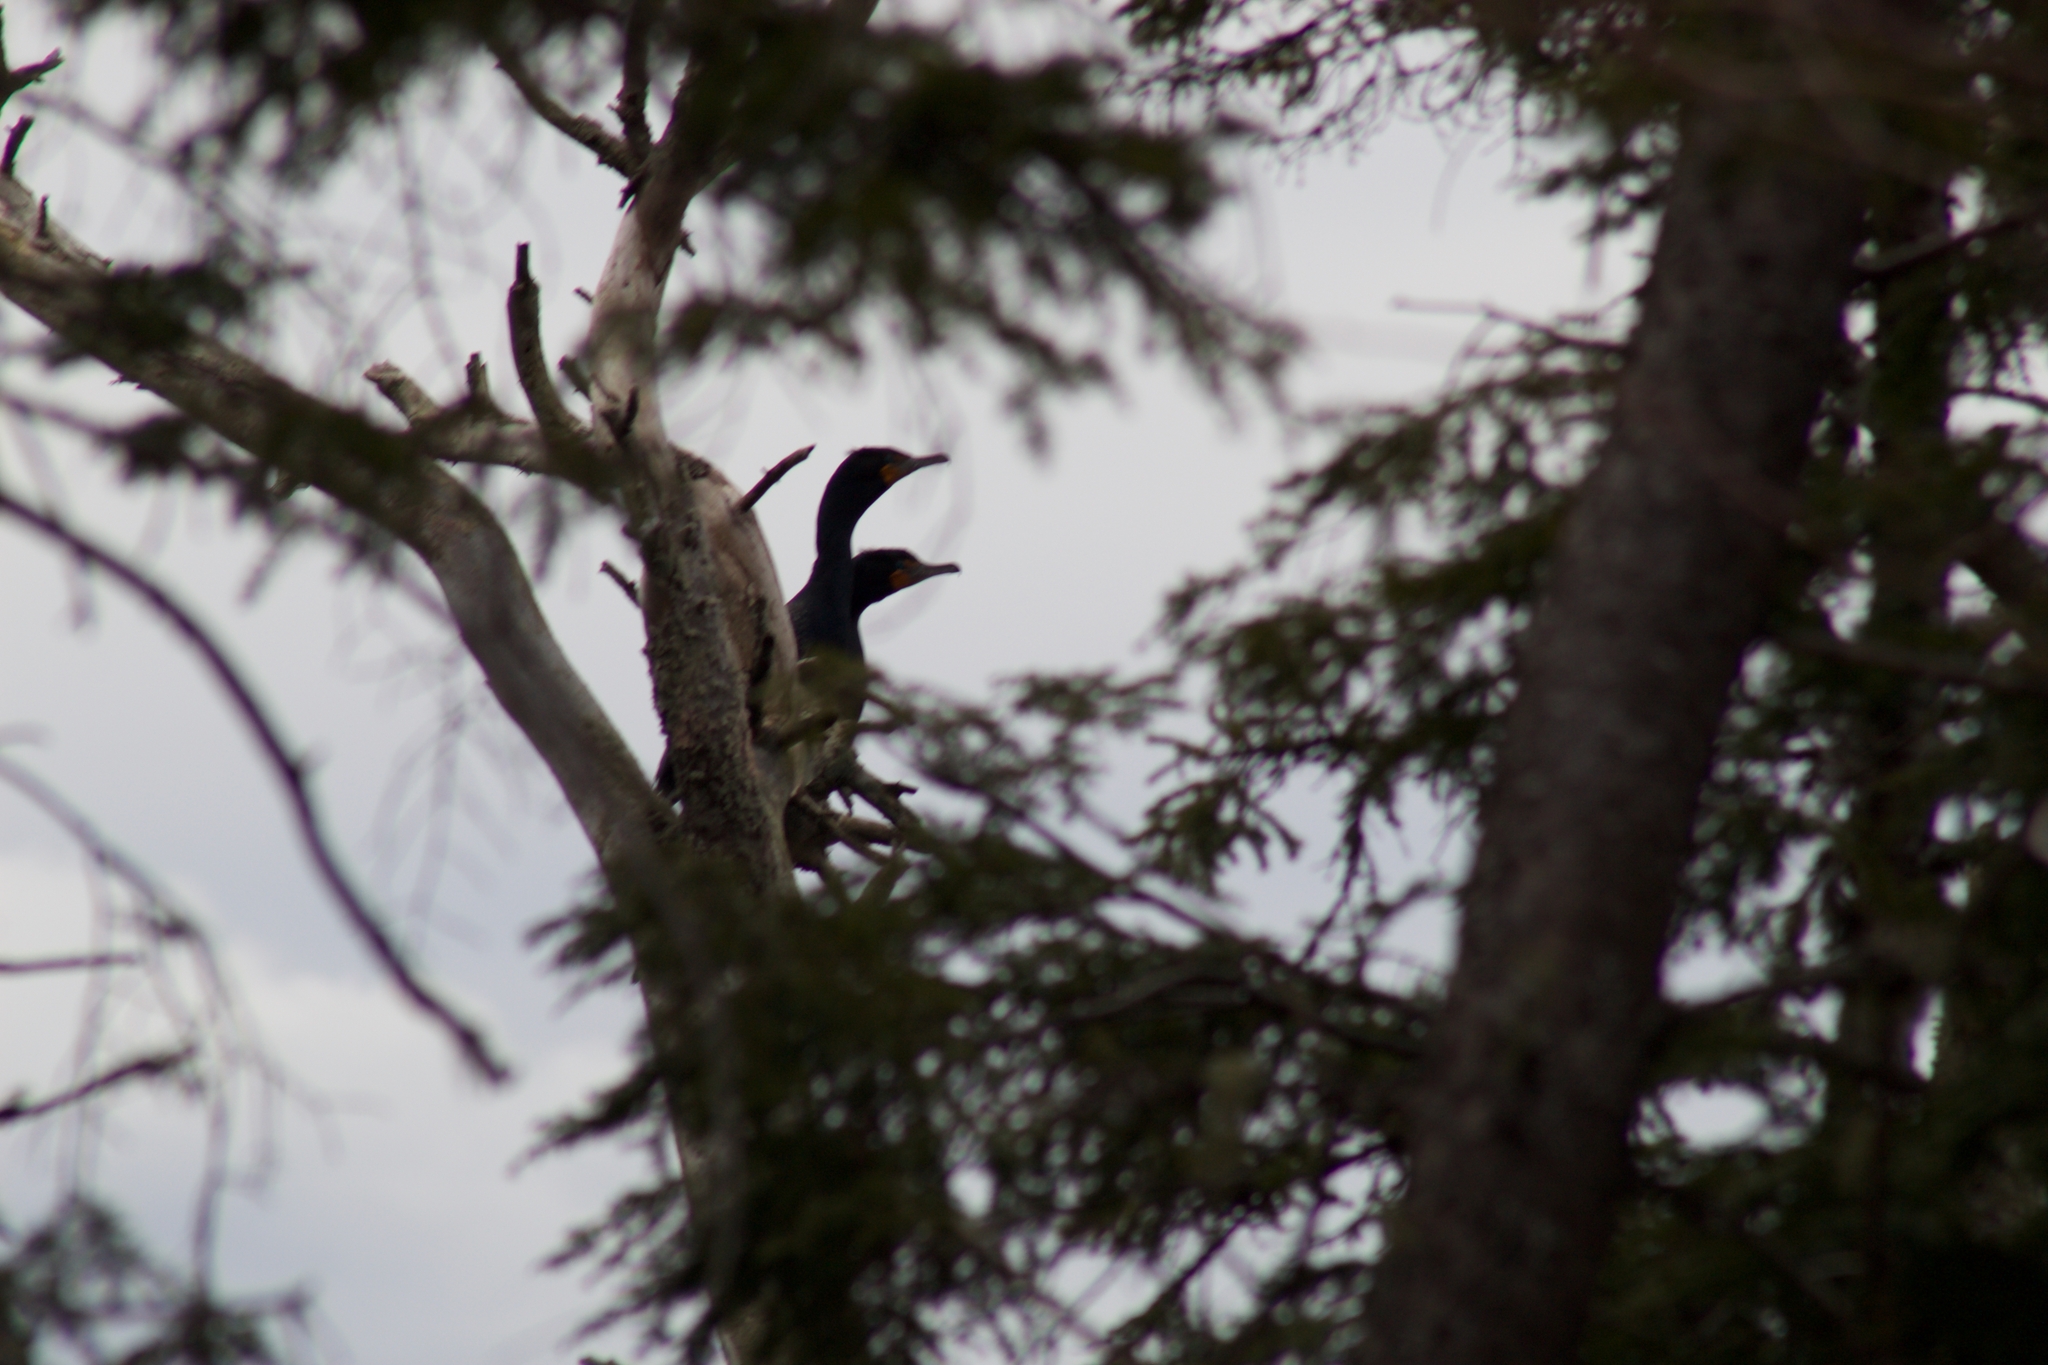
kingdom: Animalia
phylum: Chordata
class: Aves
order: Suliformes
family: Phalacrocoracidae
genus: Phalacrocorax
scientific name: Phalacrocorax auritus
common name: Double-crested cormorant
